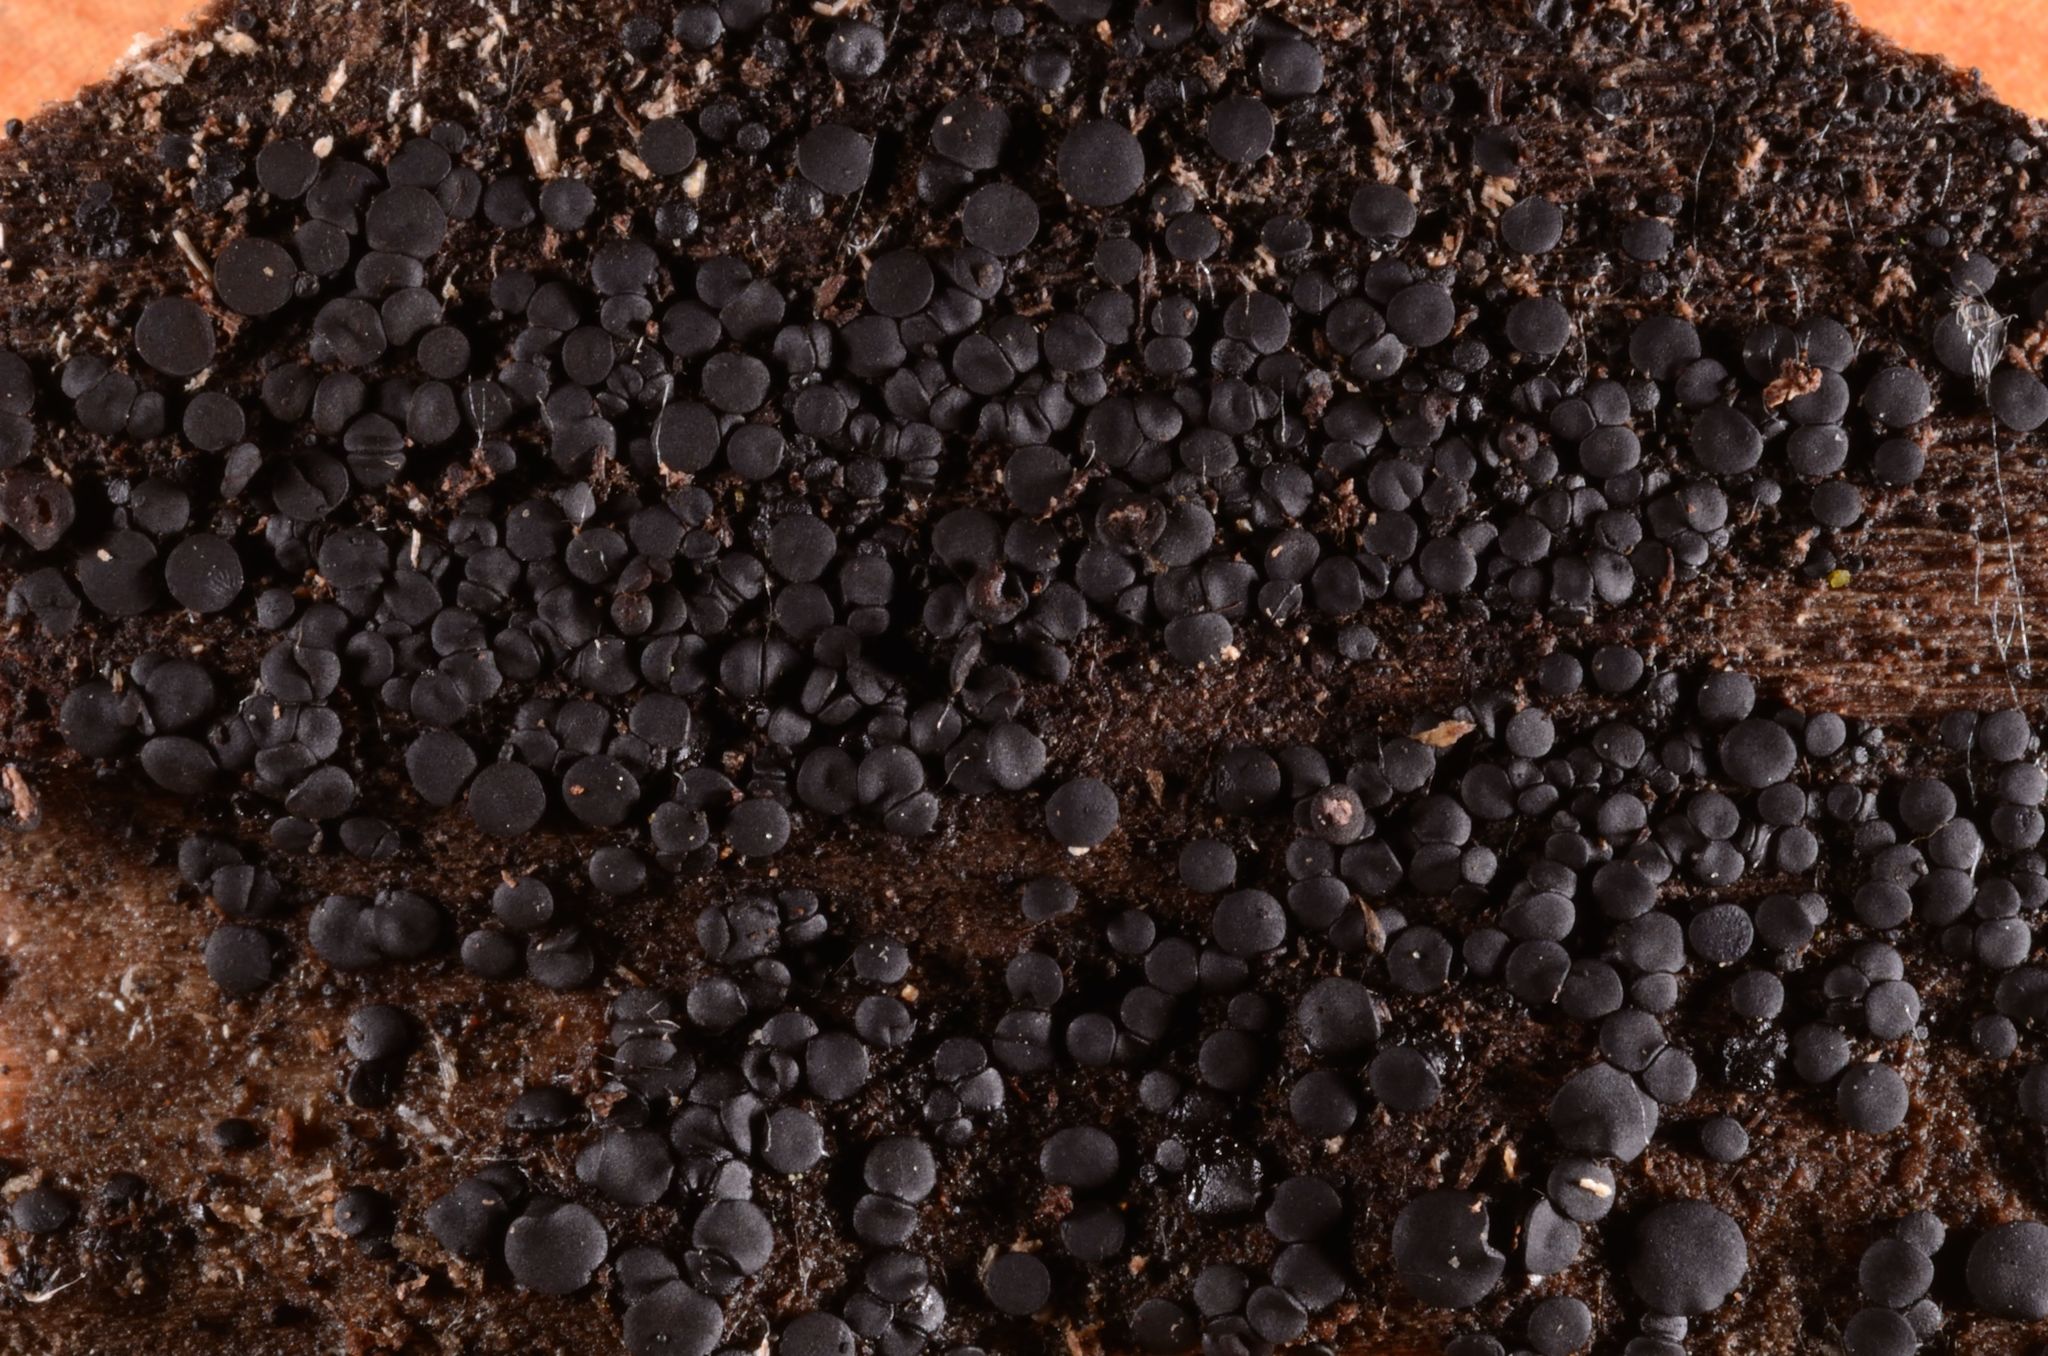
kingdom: Fungi
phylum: Ascomycota
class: Eurotiomycetes
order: Sclerococcales
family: Sclerococcaceae
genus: Sclerococcum
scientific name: Sclerococcum stygium
